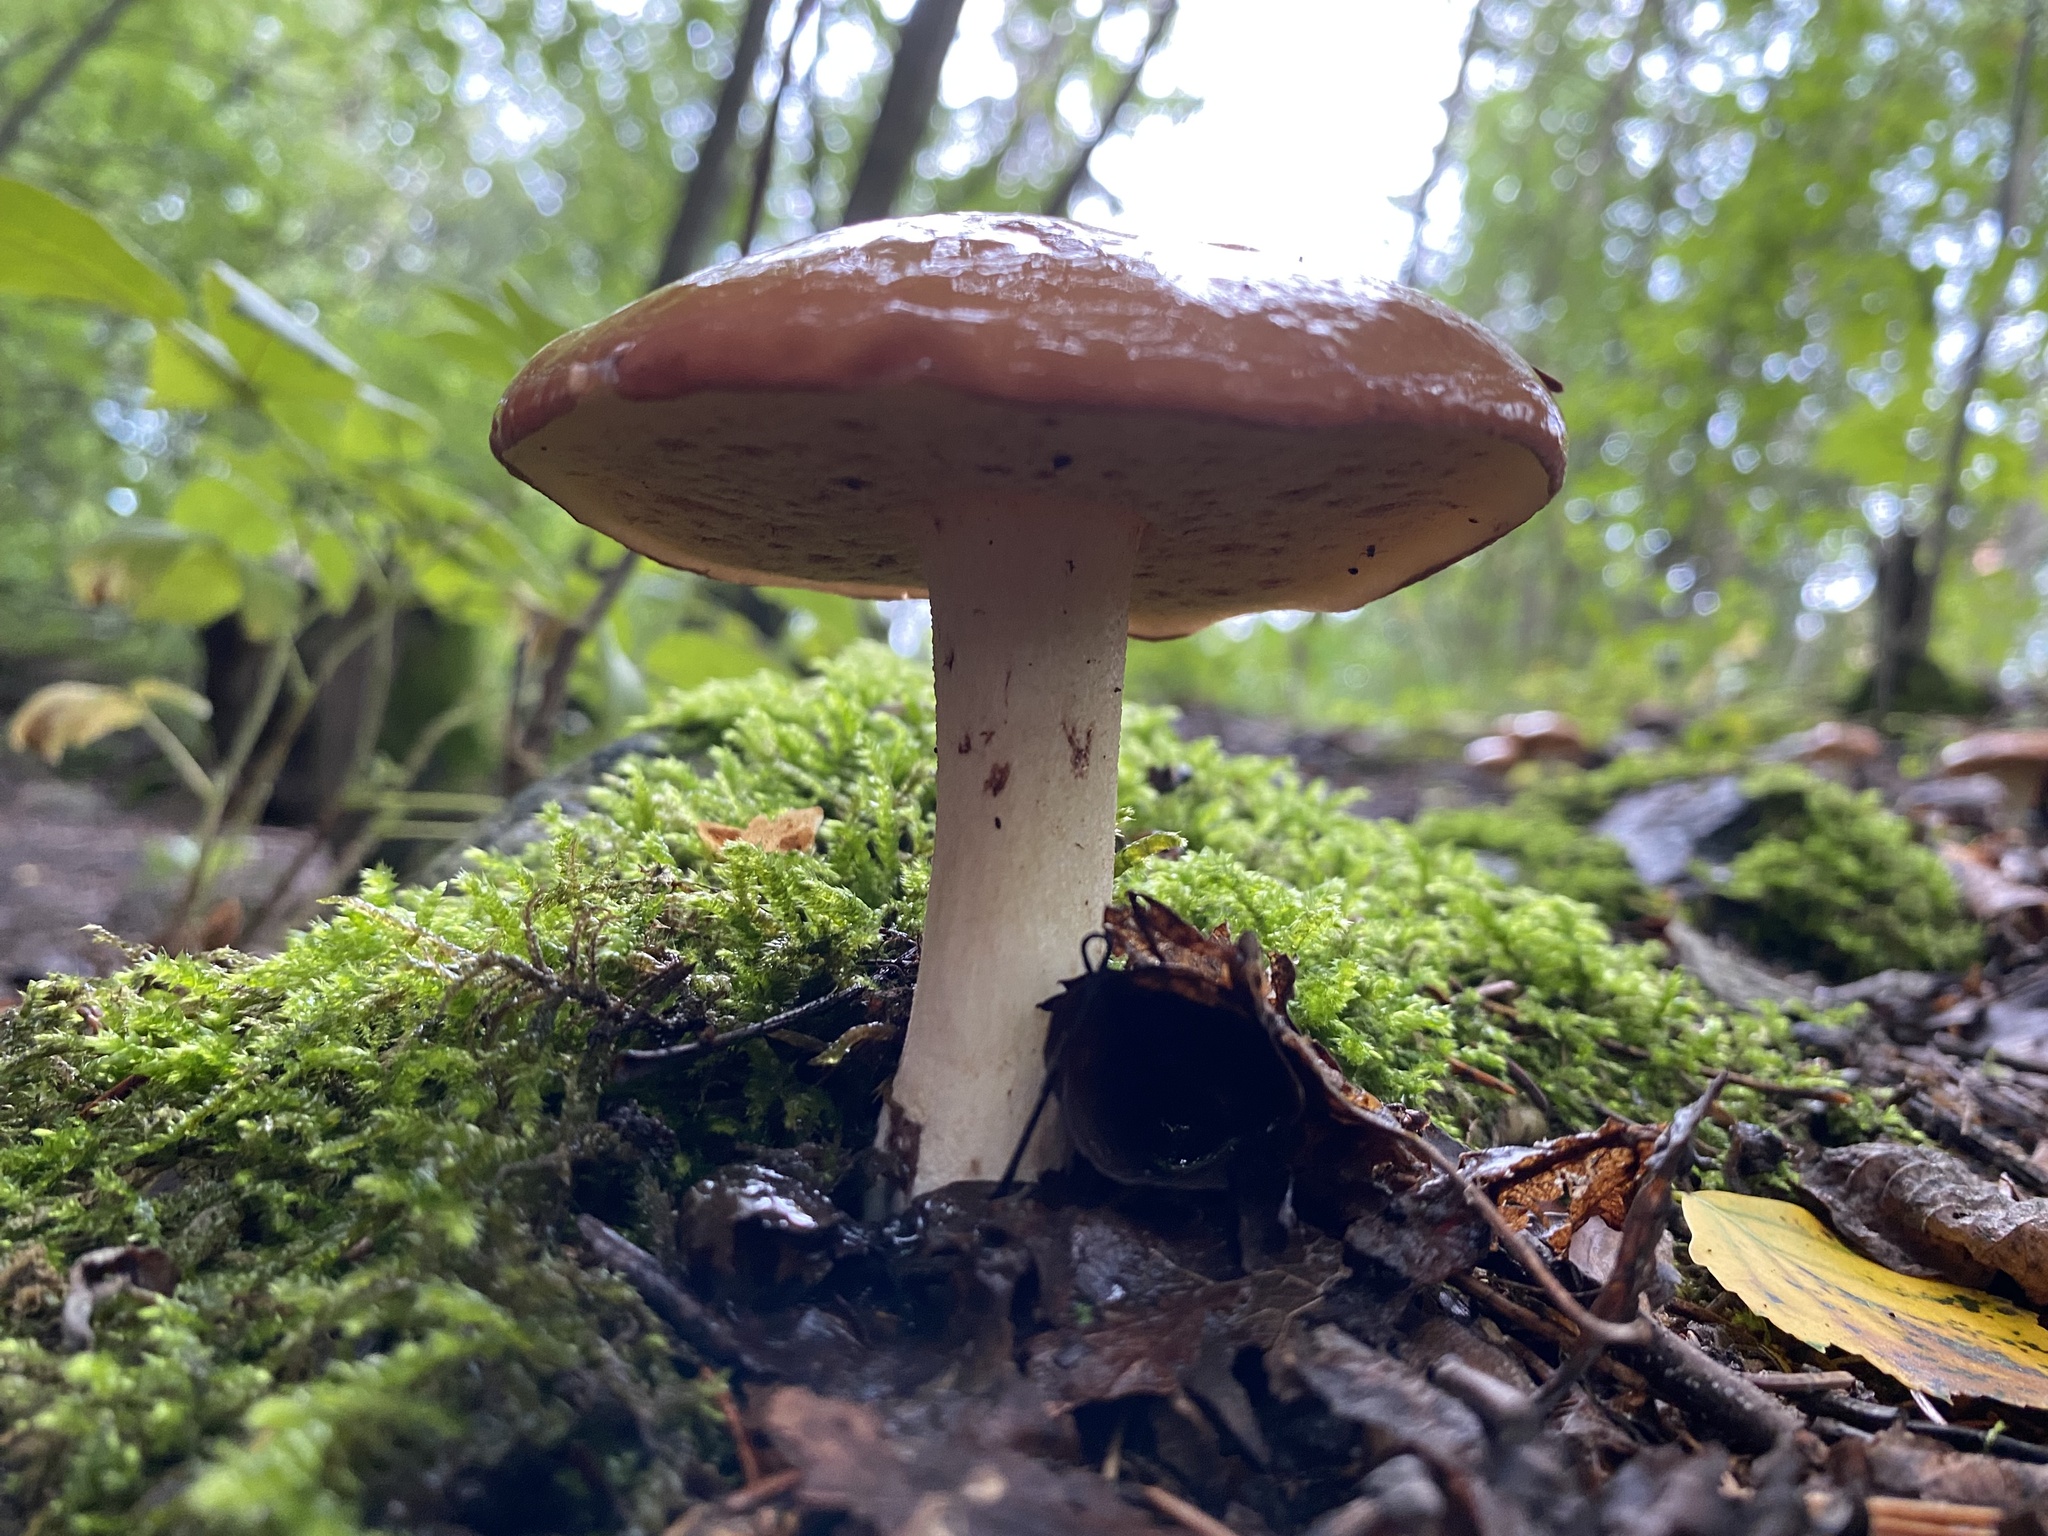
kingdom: Fungi
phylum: Basidiomycota
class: Agaricomycetes
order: Boletales
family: Suillaceae
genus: Suillus
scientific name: Suillus granulatus
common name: Weeping bolete
